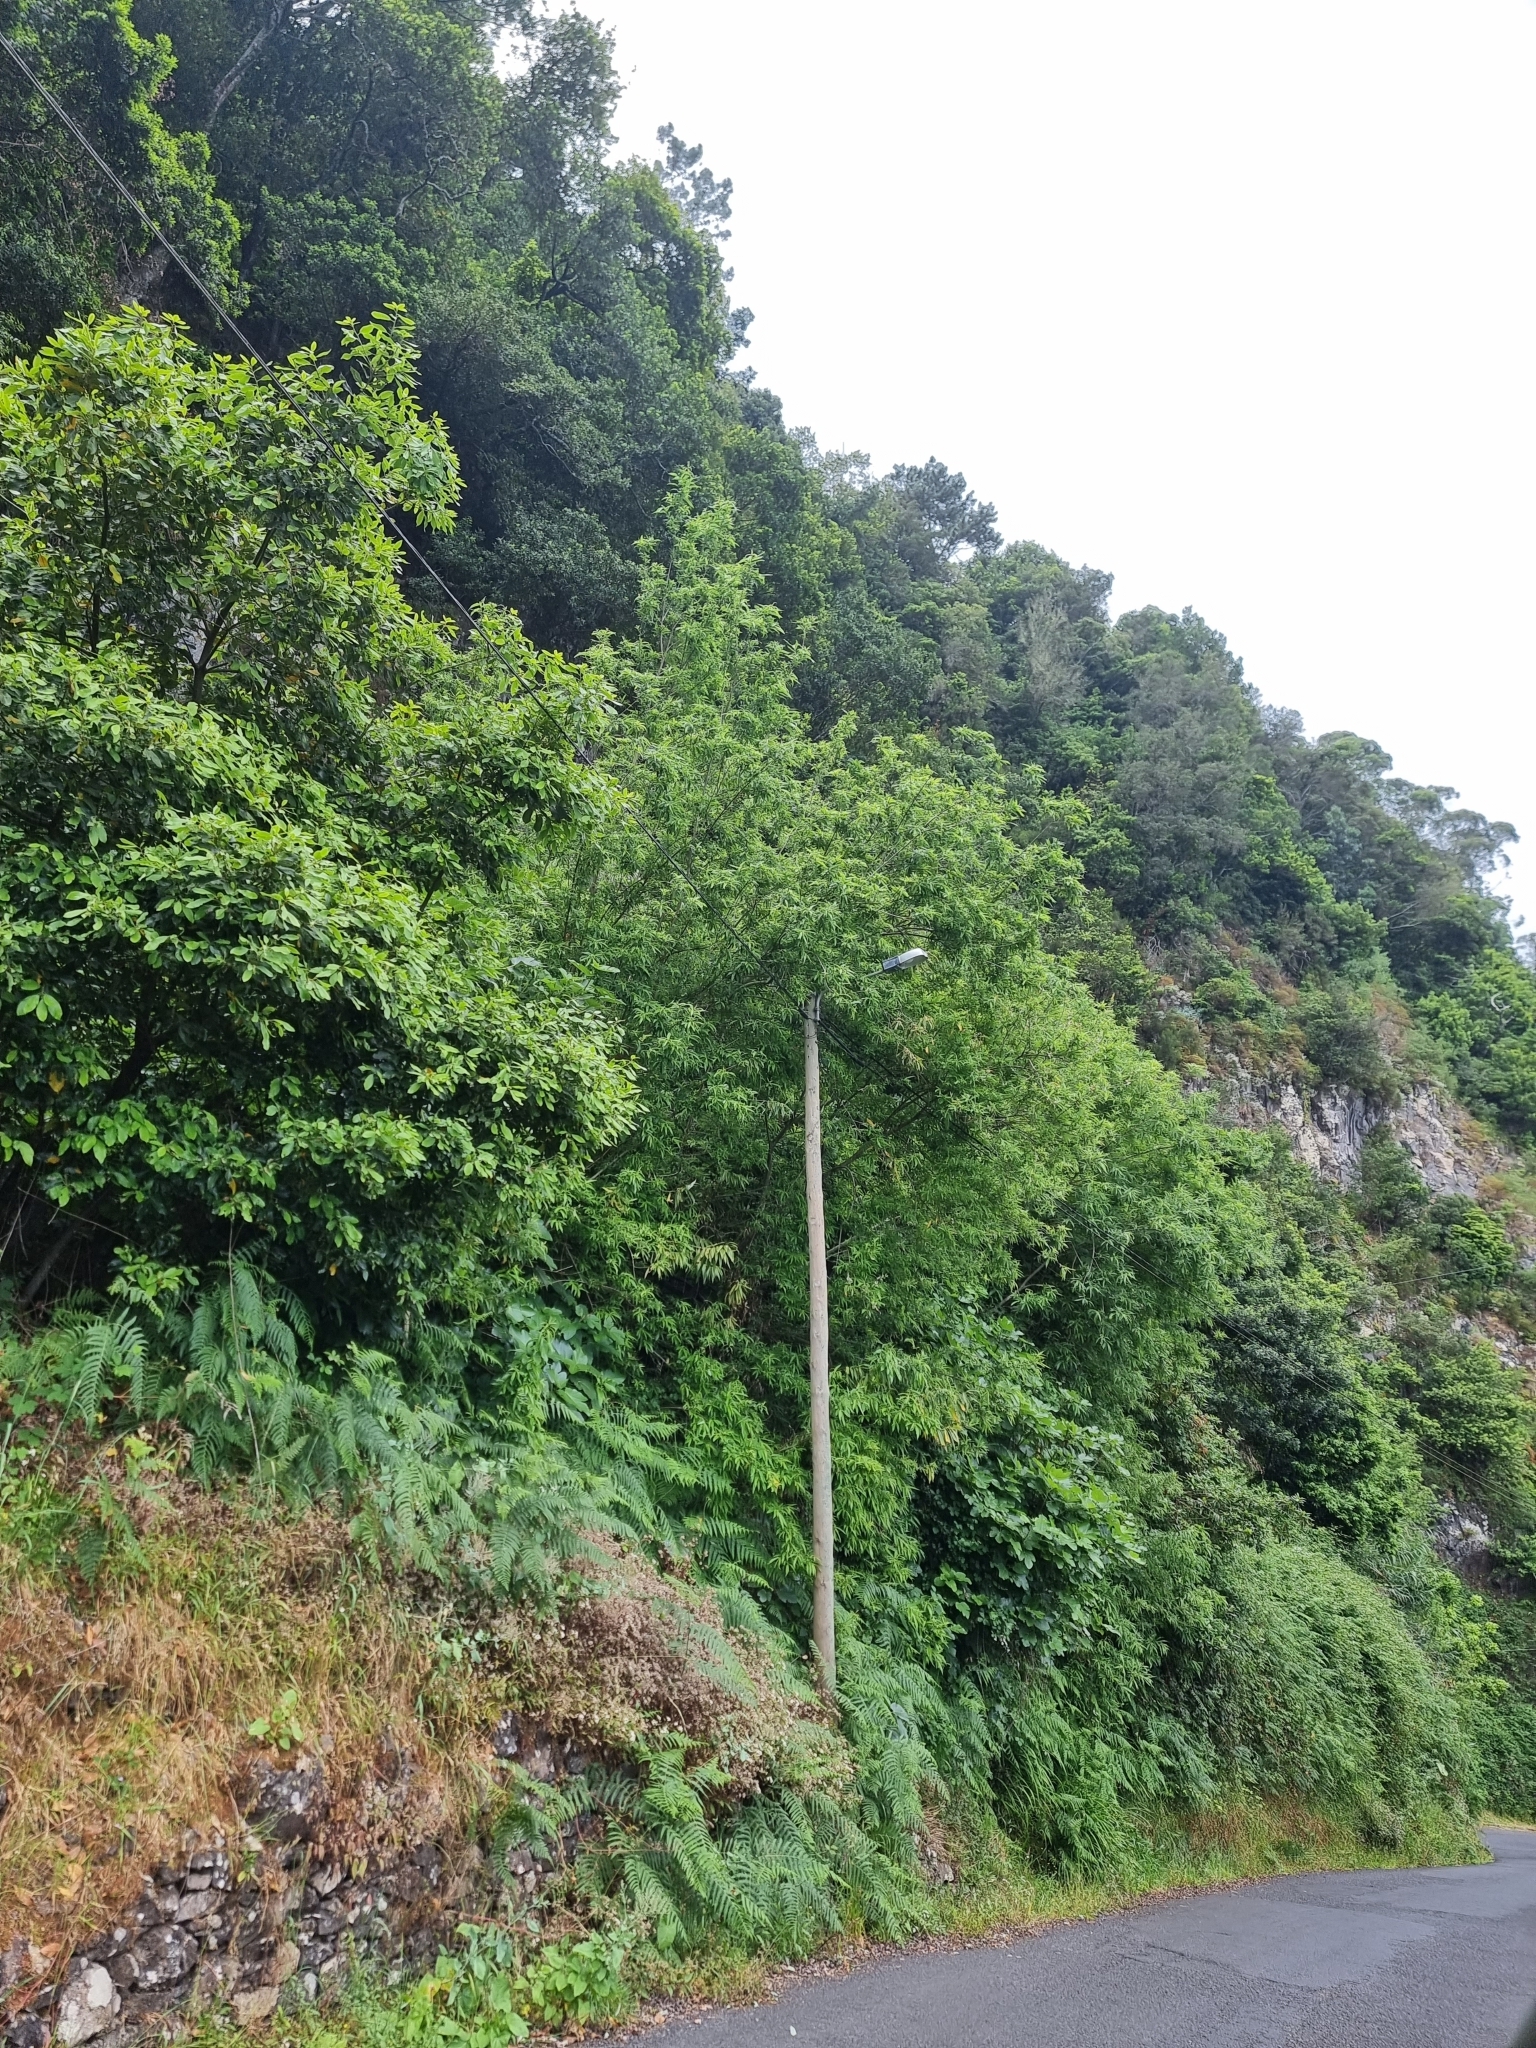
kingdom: Plantae
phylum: Tracheophyta
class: Magnoliopsida
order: Malpighiales
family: Salicaceae
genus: Salix
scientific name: Salix canariensis
